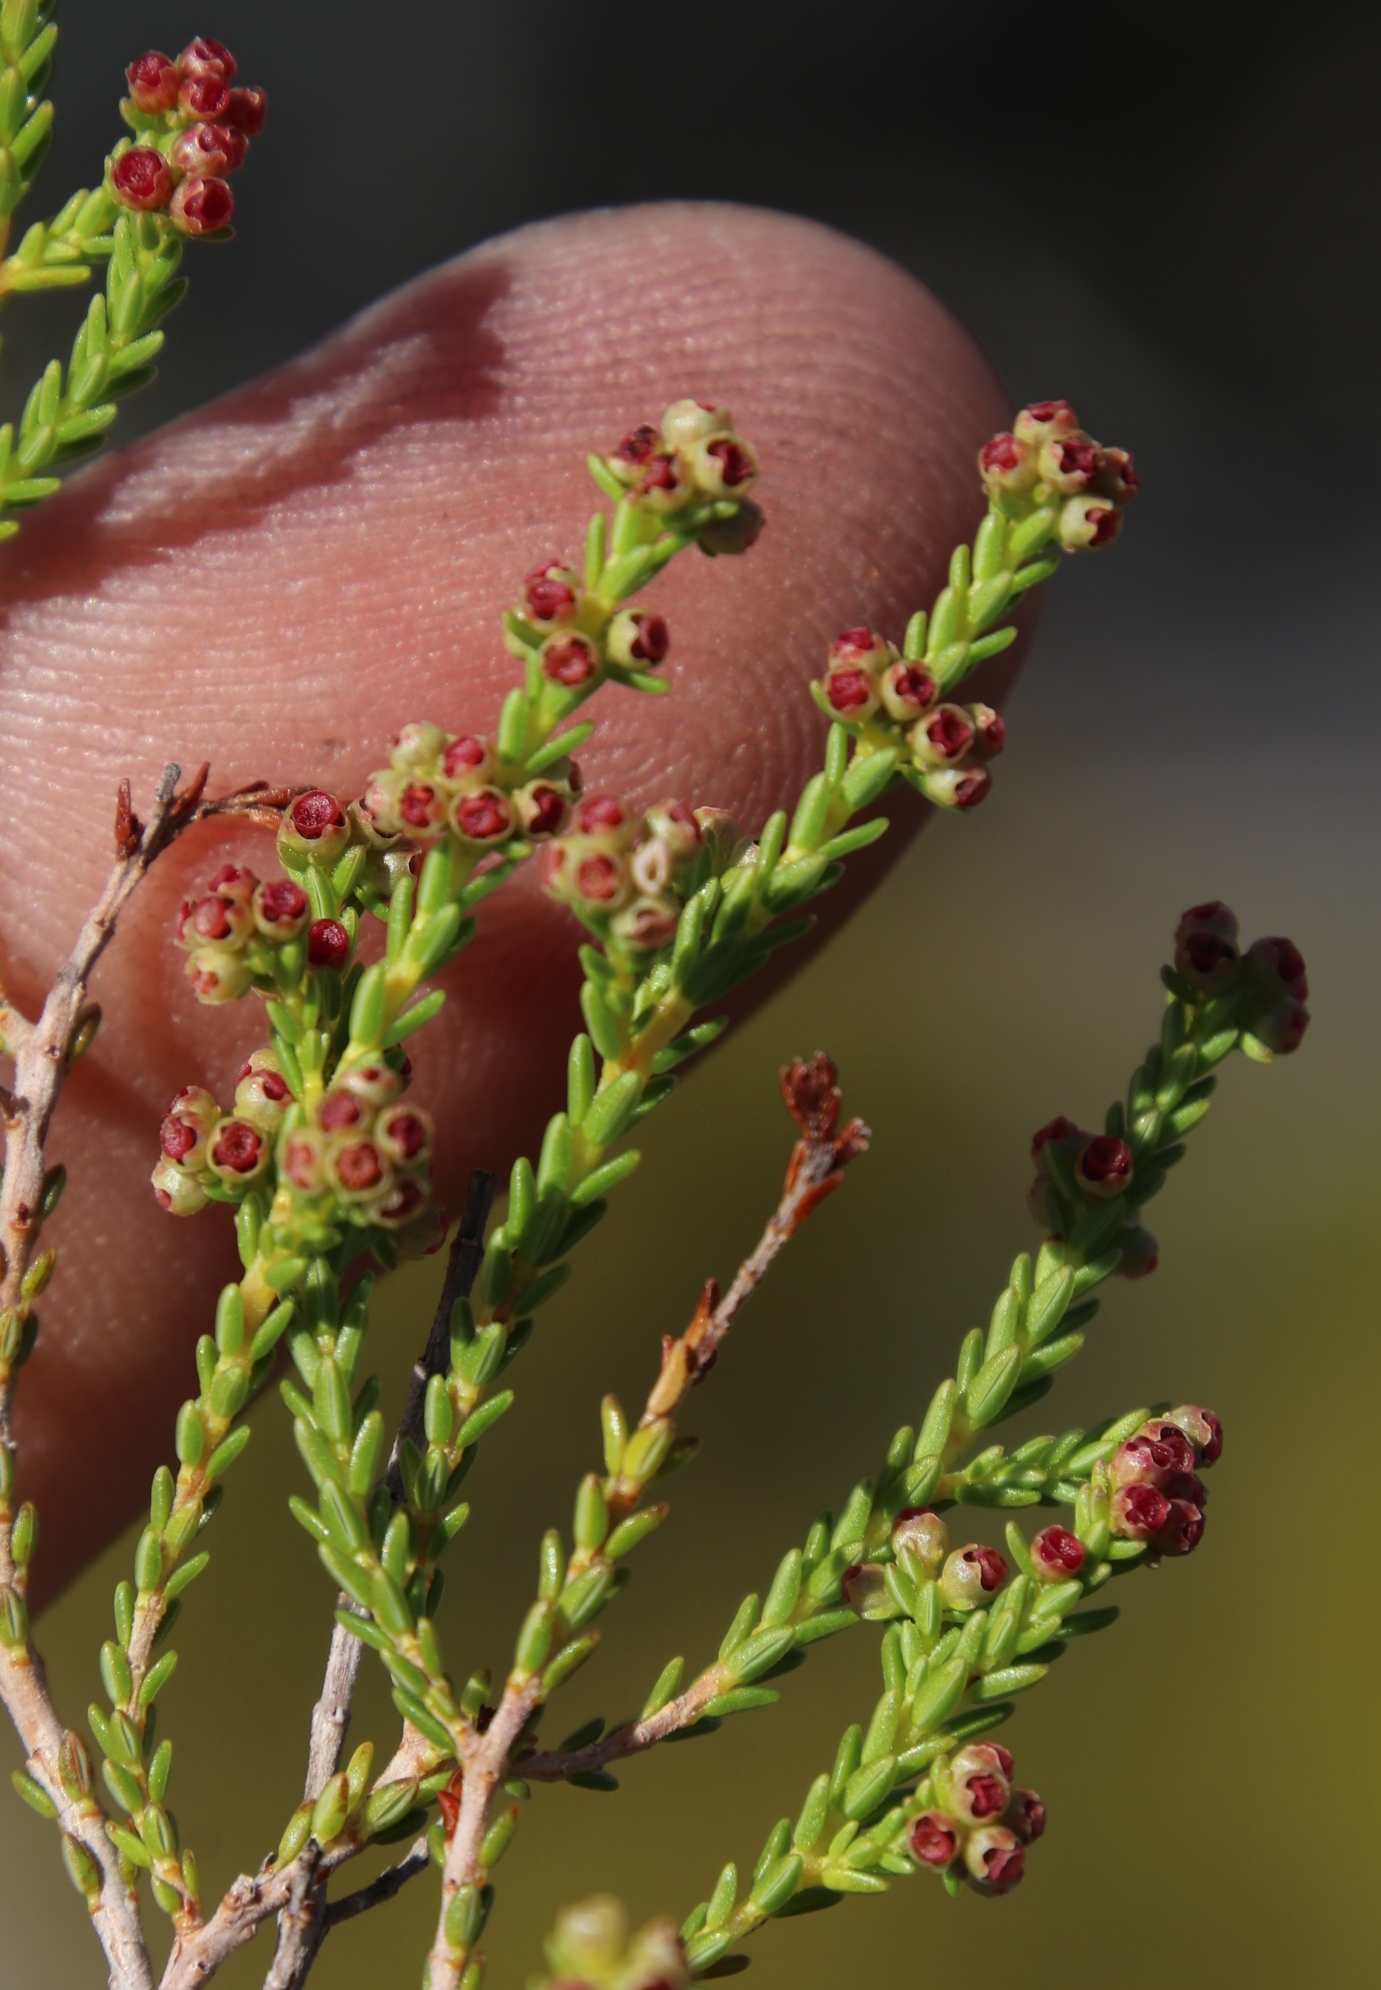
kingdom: Plantae
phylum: Tracheophyta
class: Magnoliopsida
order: Ericales
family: Ericaceae
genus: Erica
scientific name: Erica axillaris
